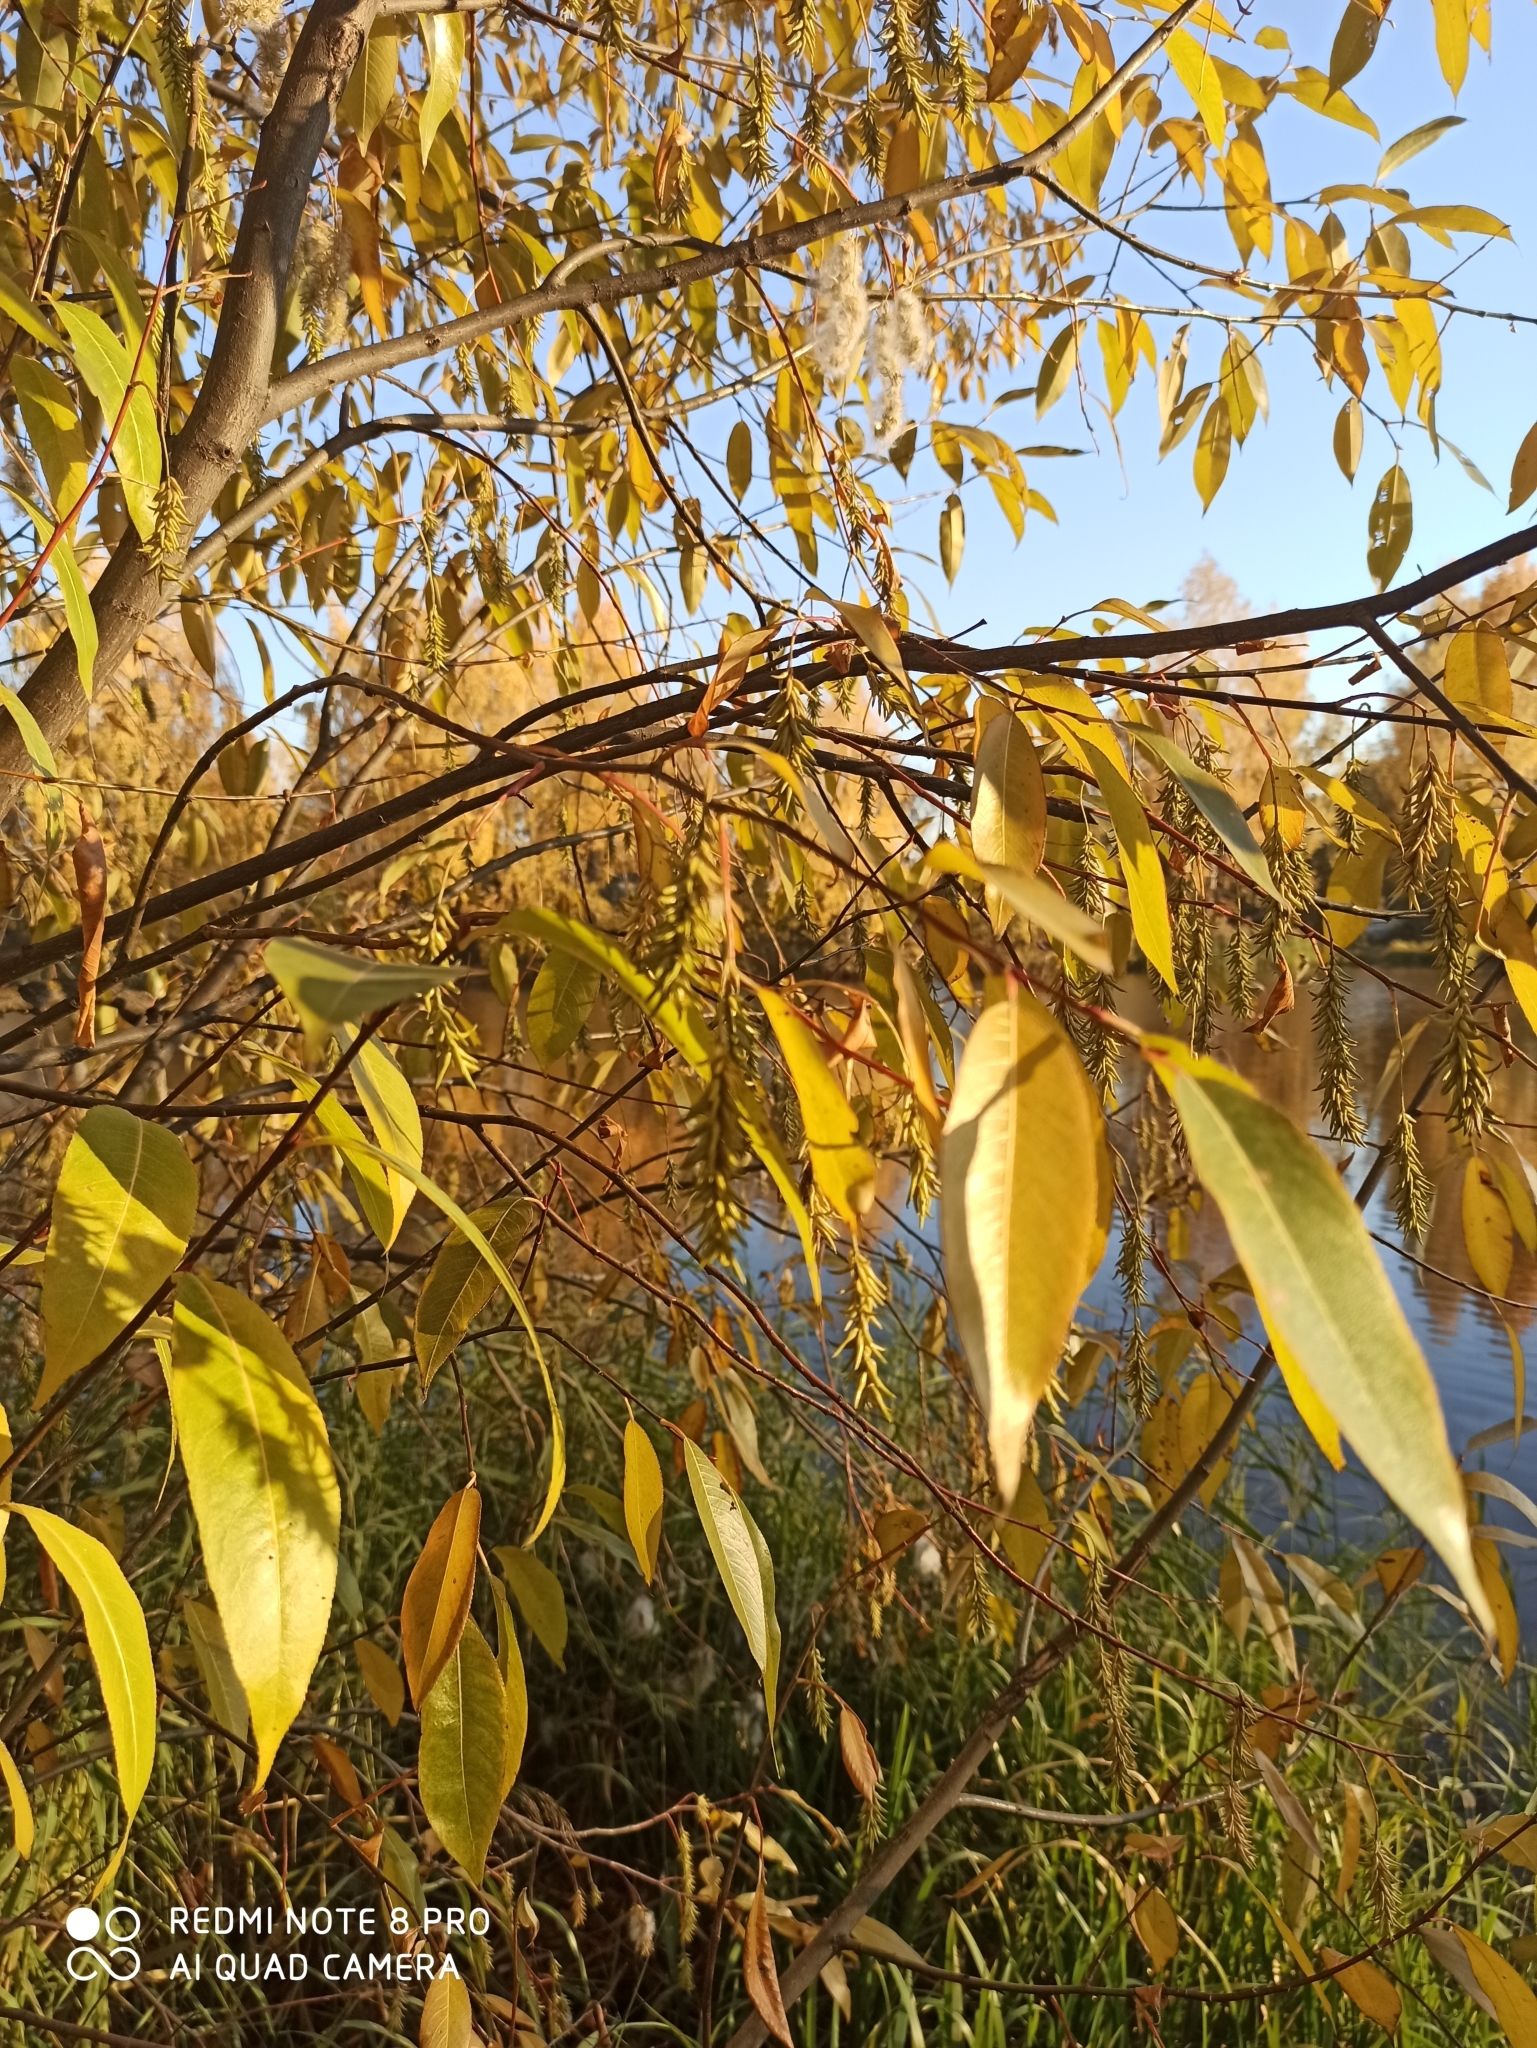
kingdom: Plantae
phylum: Tracheophyta
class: Magnoliopsida
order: Malpighiales
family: Salicaceae
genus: Salix
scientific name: Salix pentandra
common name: Bay willow
